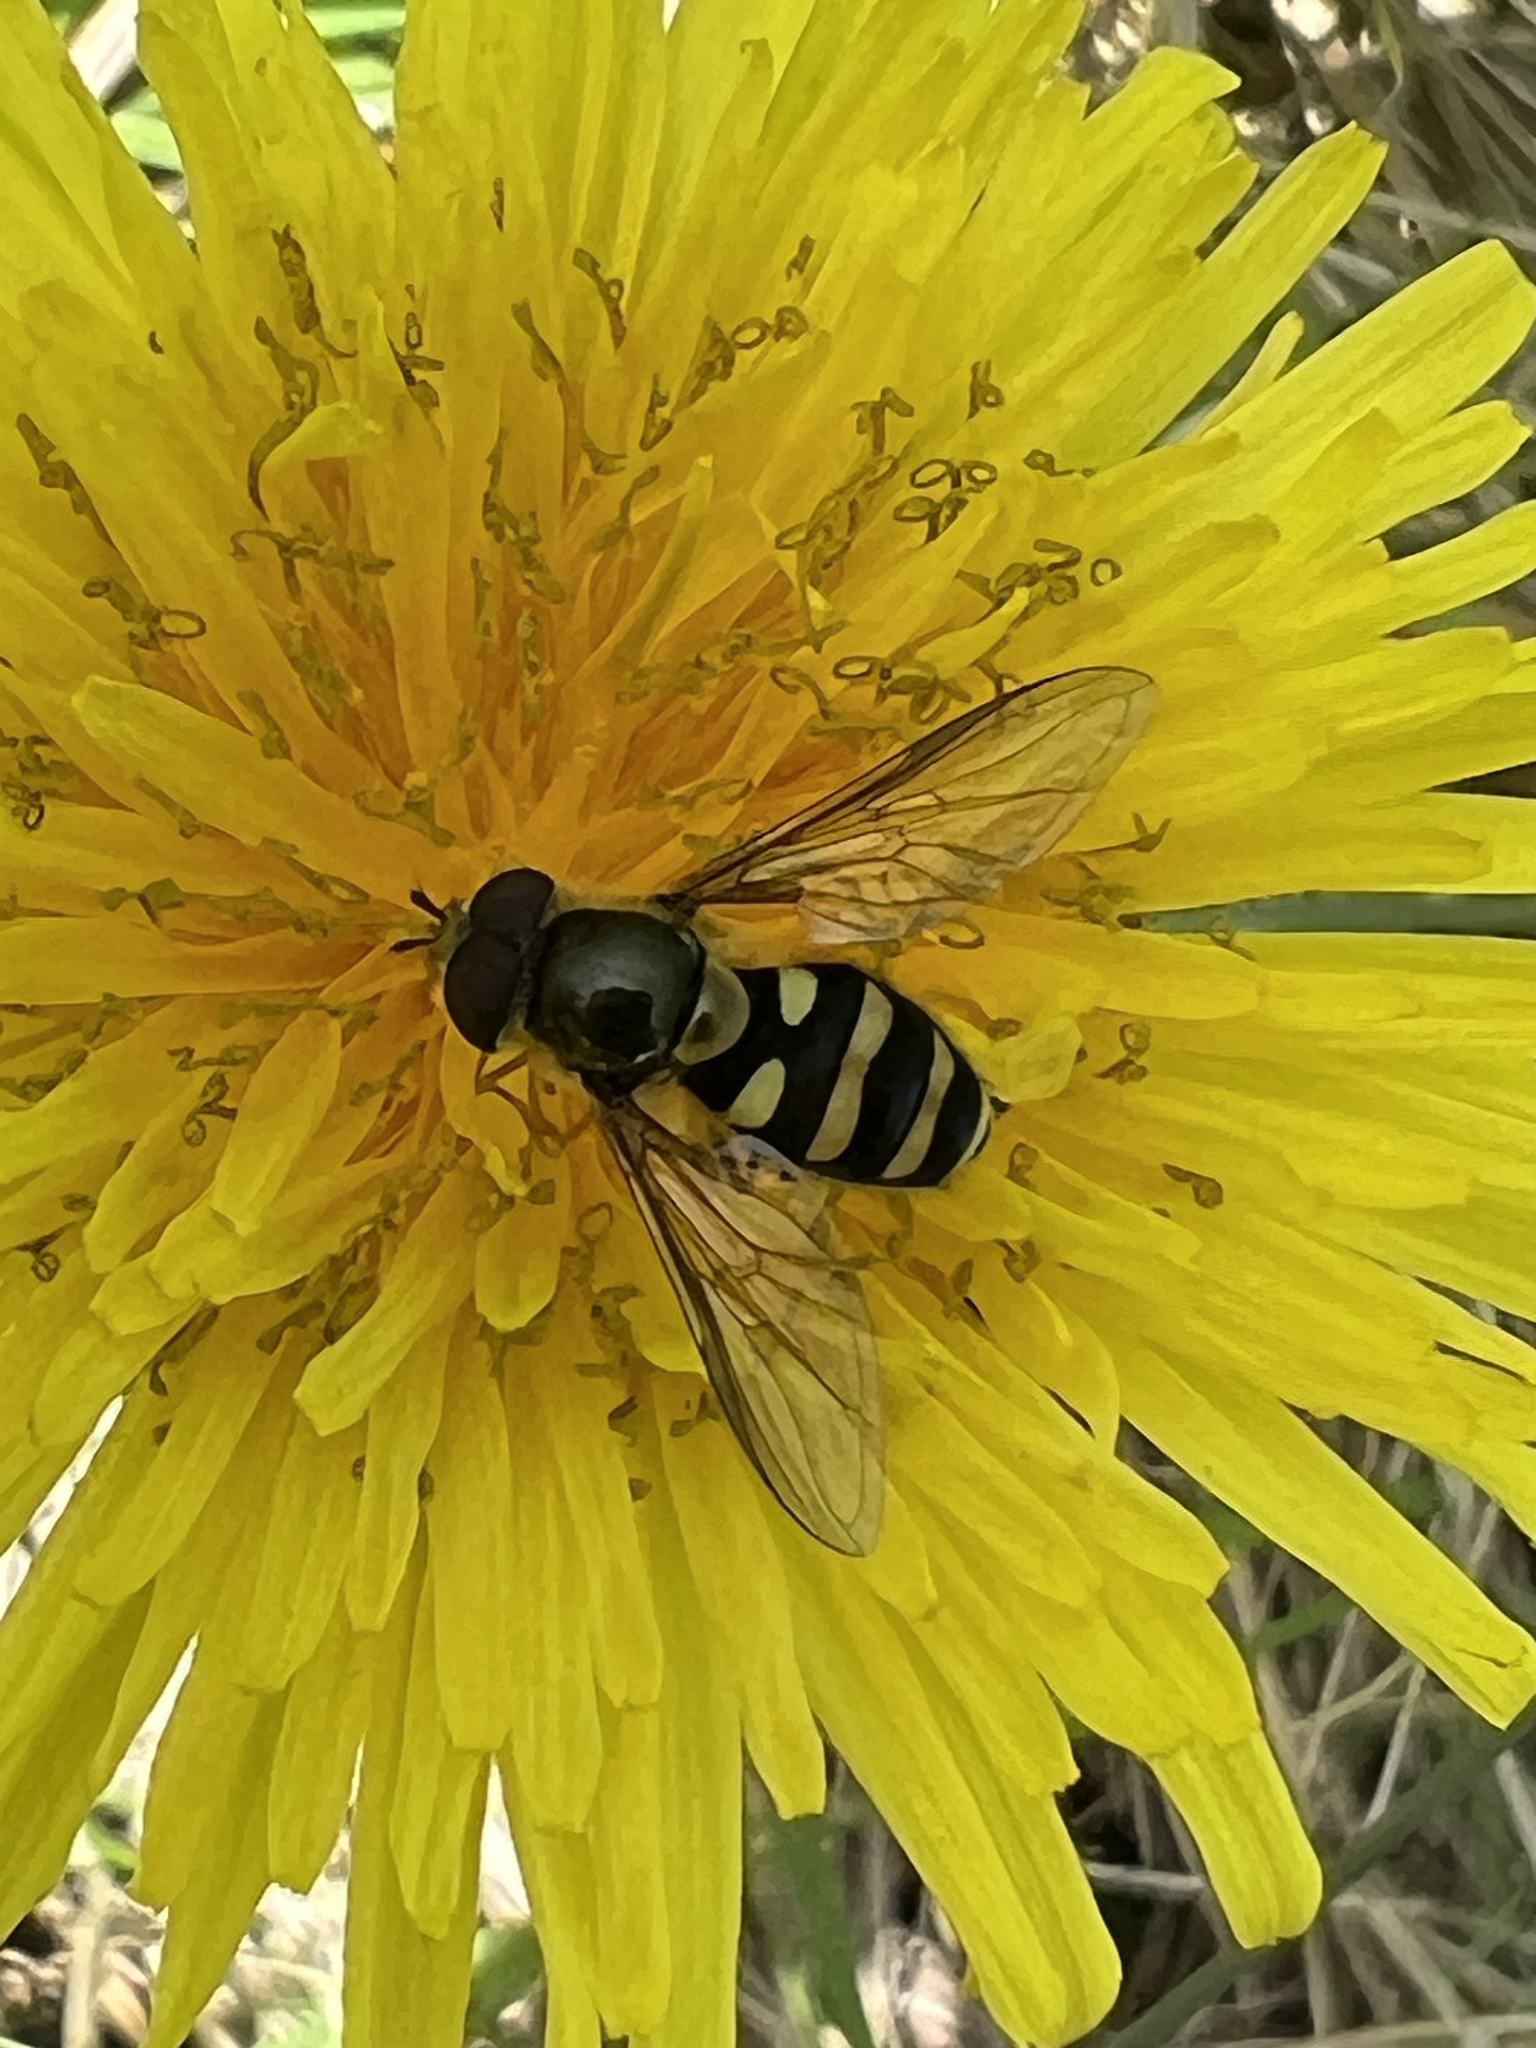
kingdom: Animalia
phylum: Arthropoda
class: Insecta
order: Diptera
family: Syrphidae
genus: Syrphus
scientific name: Syrphus opinator
